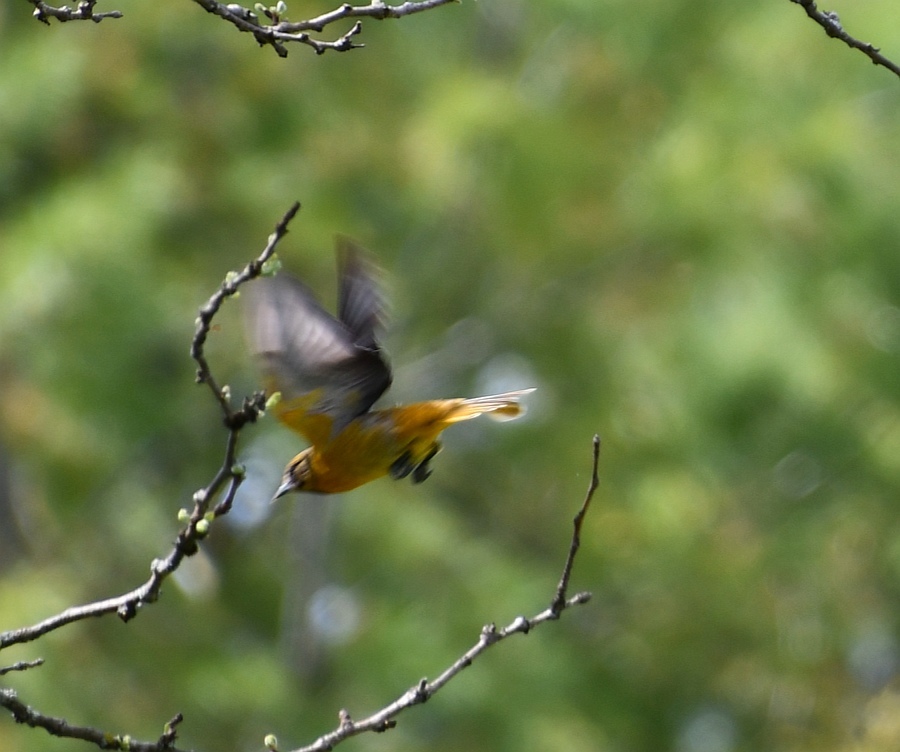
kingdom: Animalia
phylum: Chordata
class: Aves
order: Passeriformes
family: Icteridae
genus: Icterus
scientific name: Icterus galbula
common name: Baltimore oriole
